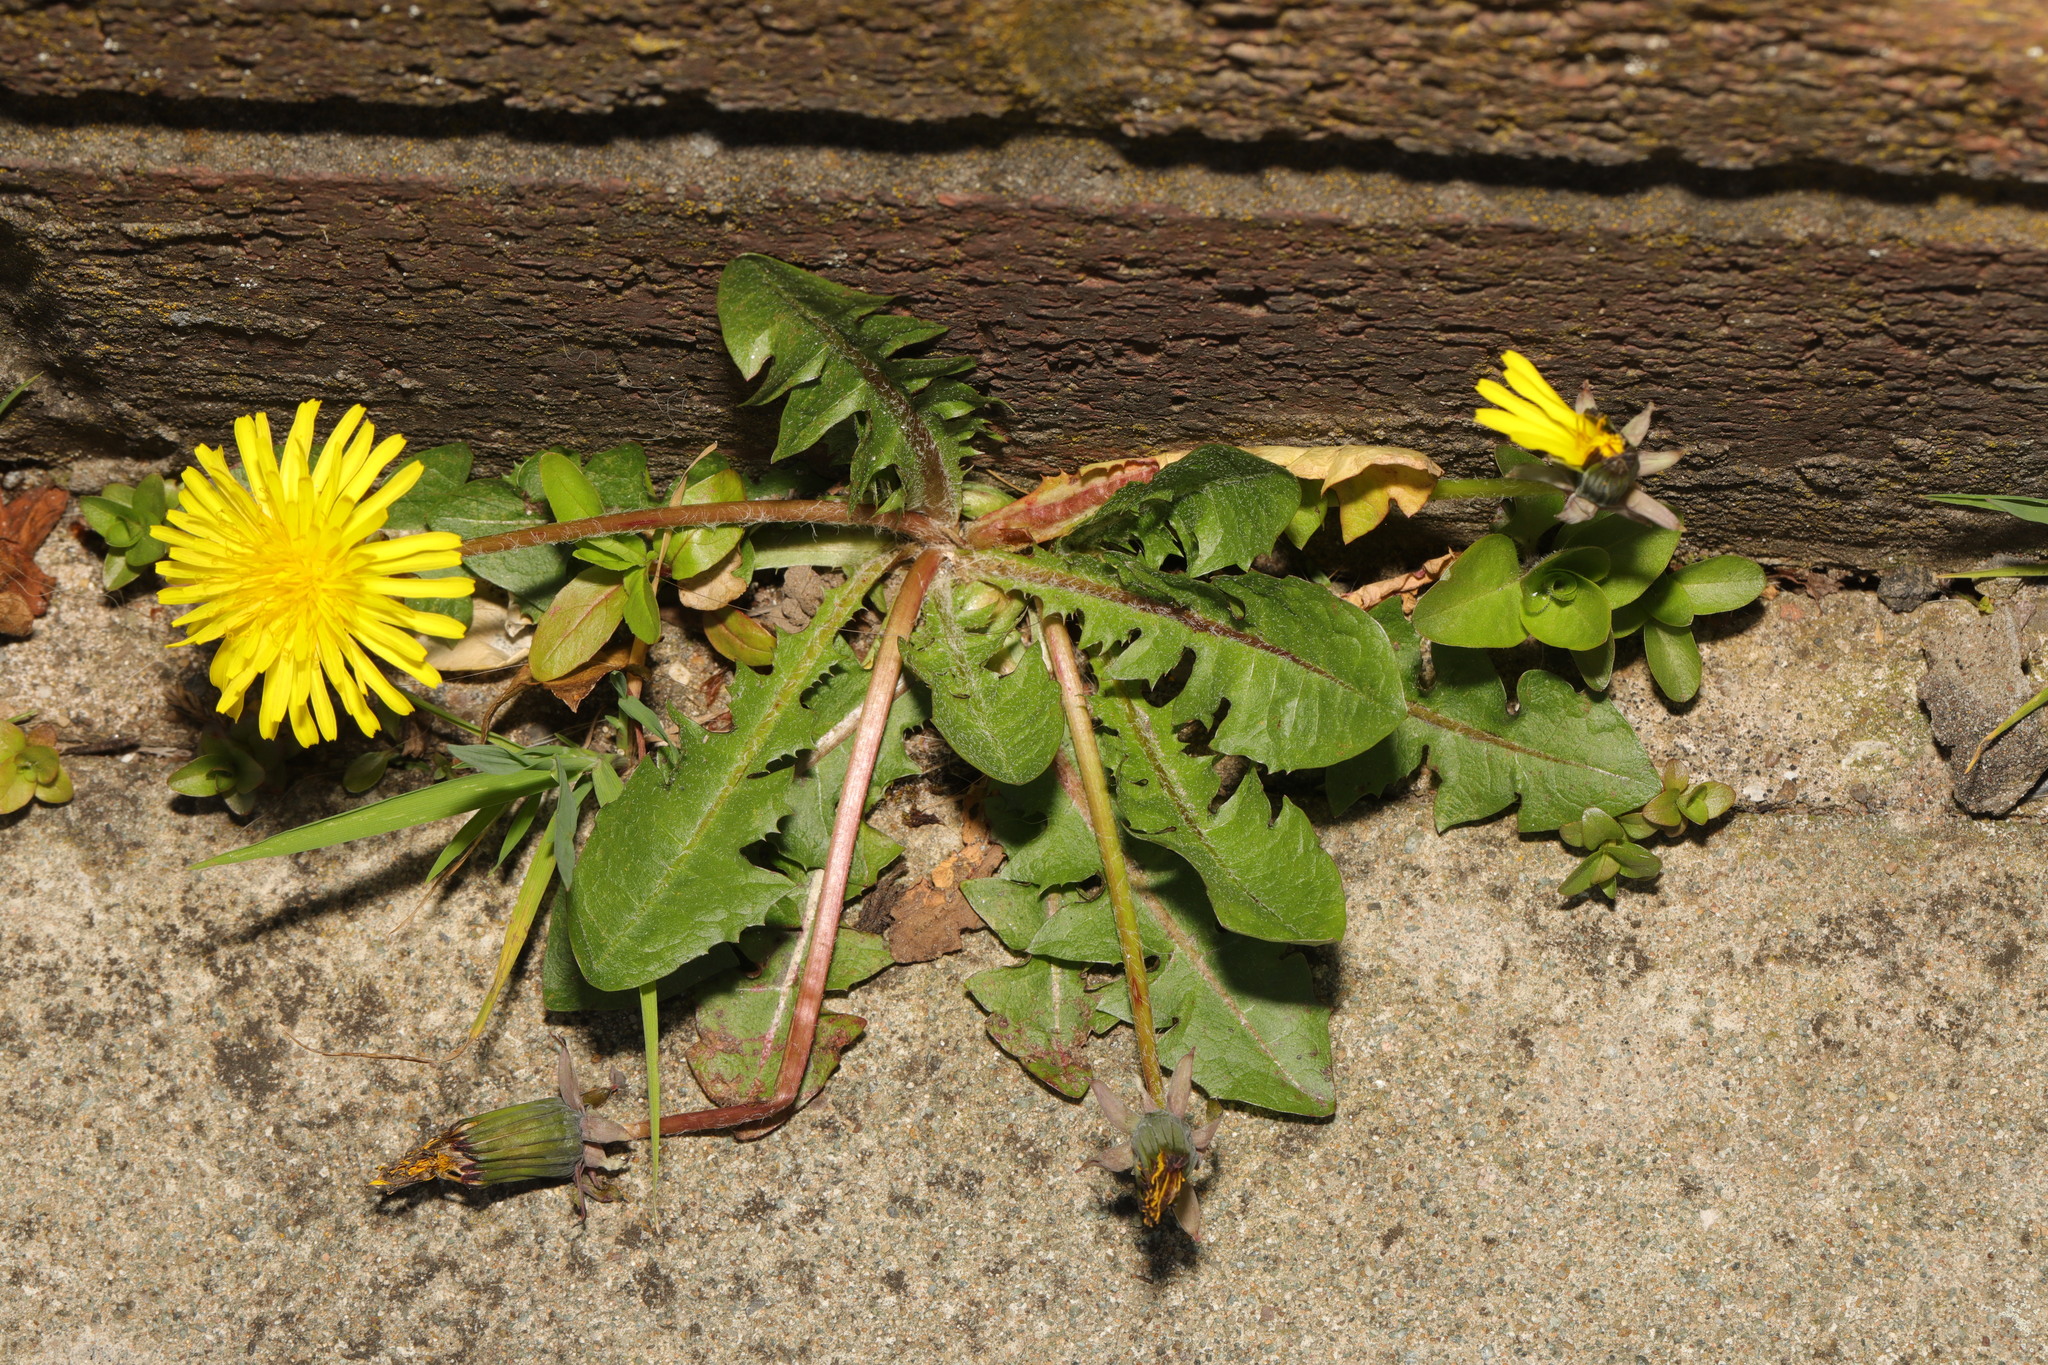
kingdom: Plantae
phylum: Tracheophyta
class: Magnoliopsida
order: Asterales
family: Asteraceae
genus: Taraxacum
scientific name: Taraxacum officinale
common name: Common dandelion
